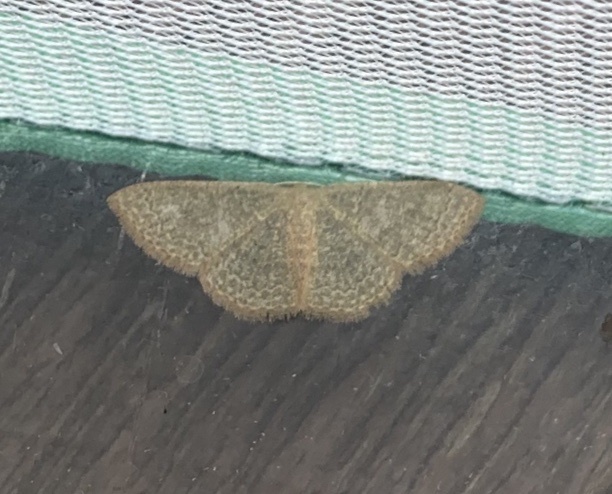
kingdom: Animalia
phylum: Arthropoda
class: Insecta
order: Lepidoptera
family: Geometridae
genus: Pleuroprucha
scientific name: Pleuroprucha insulsaria
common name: Common tan wave
